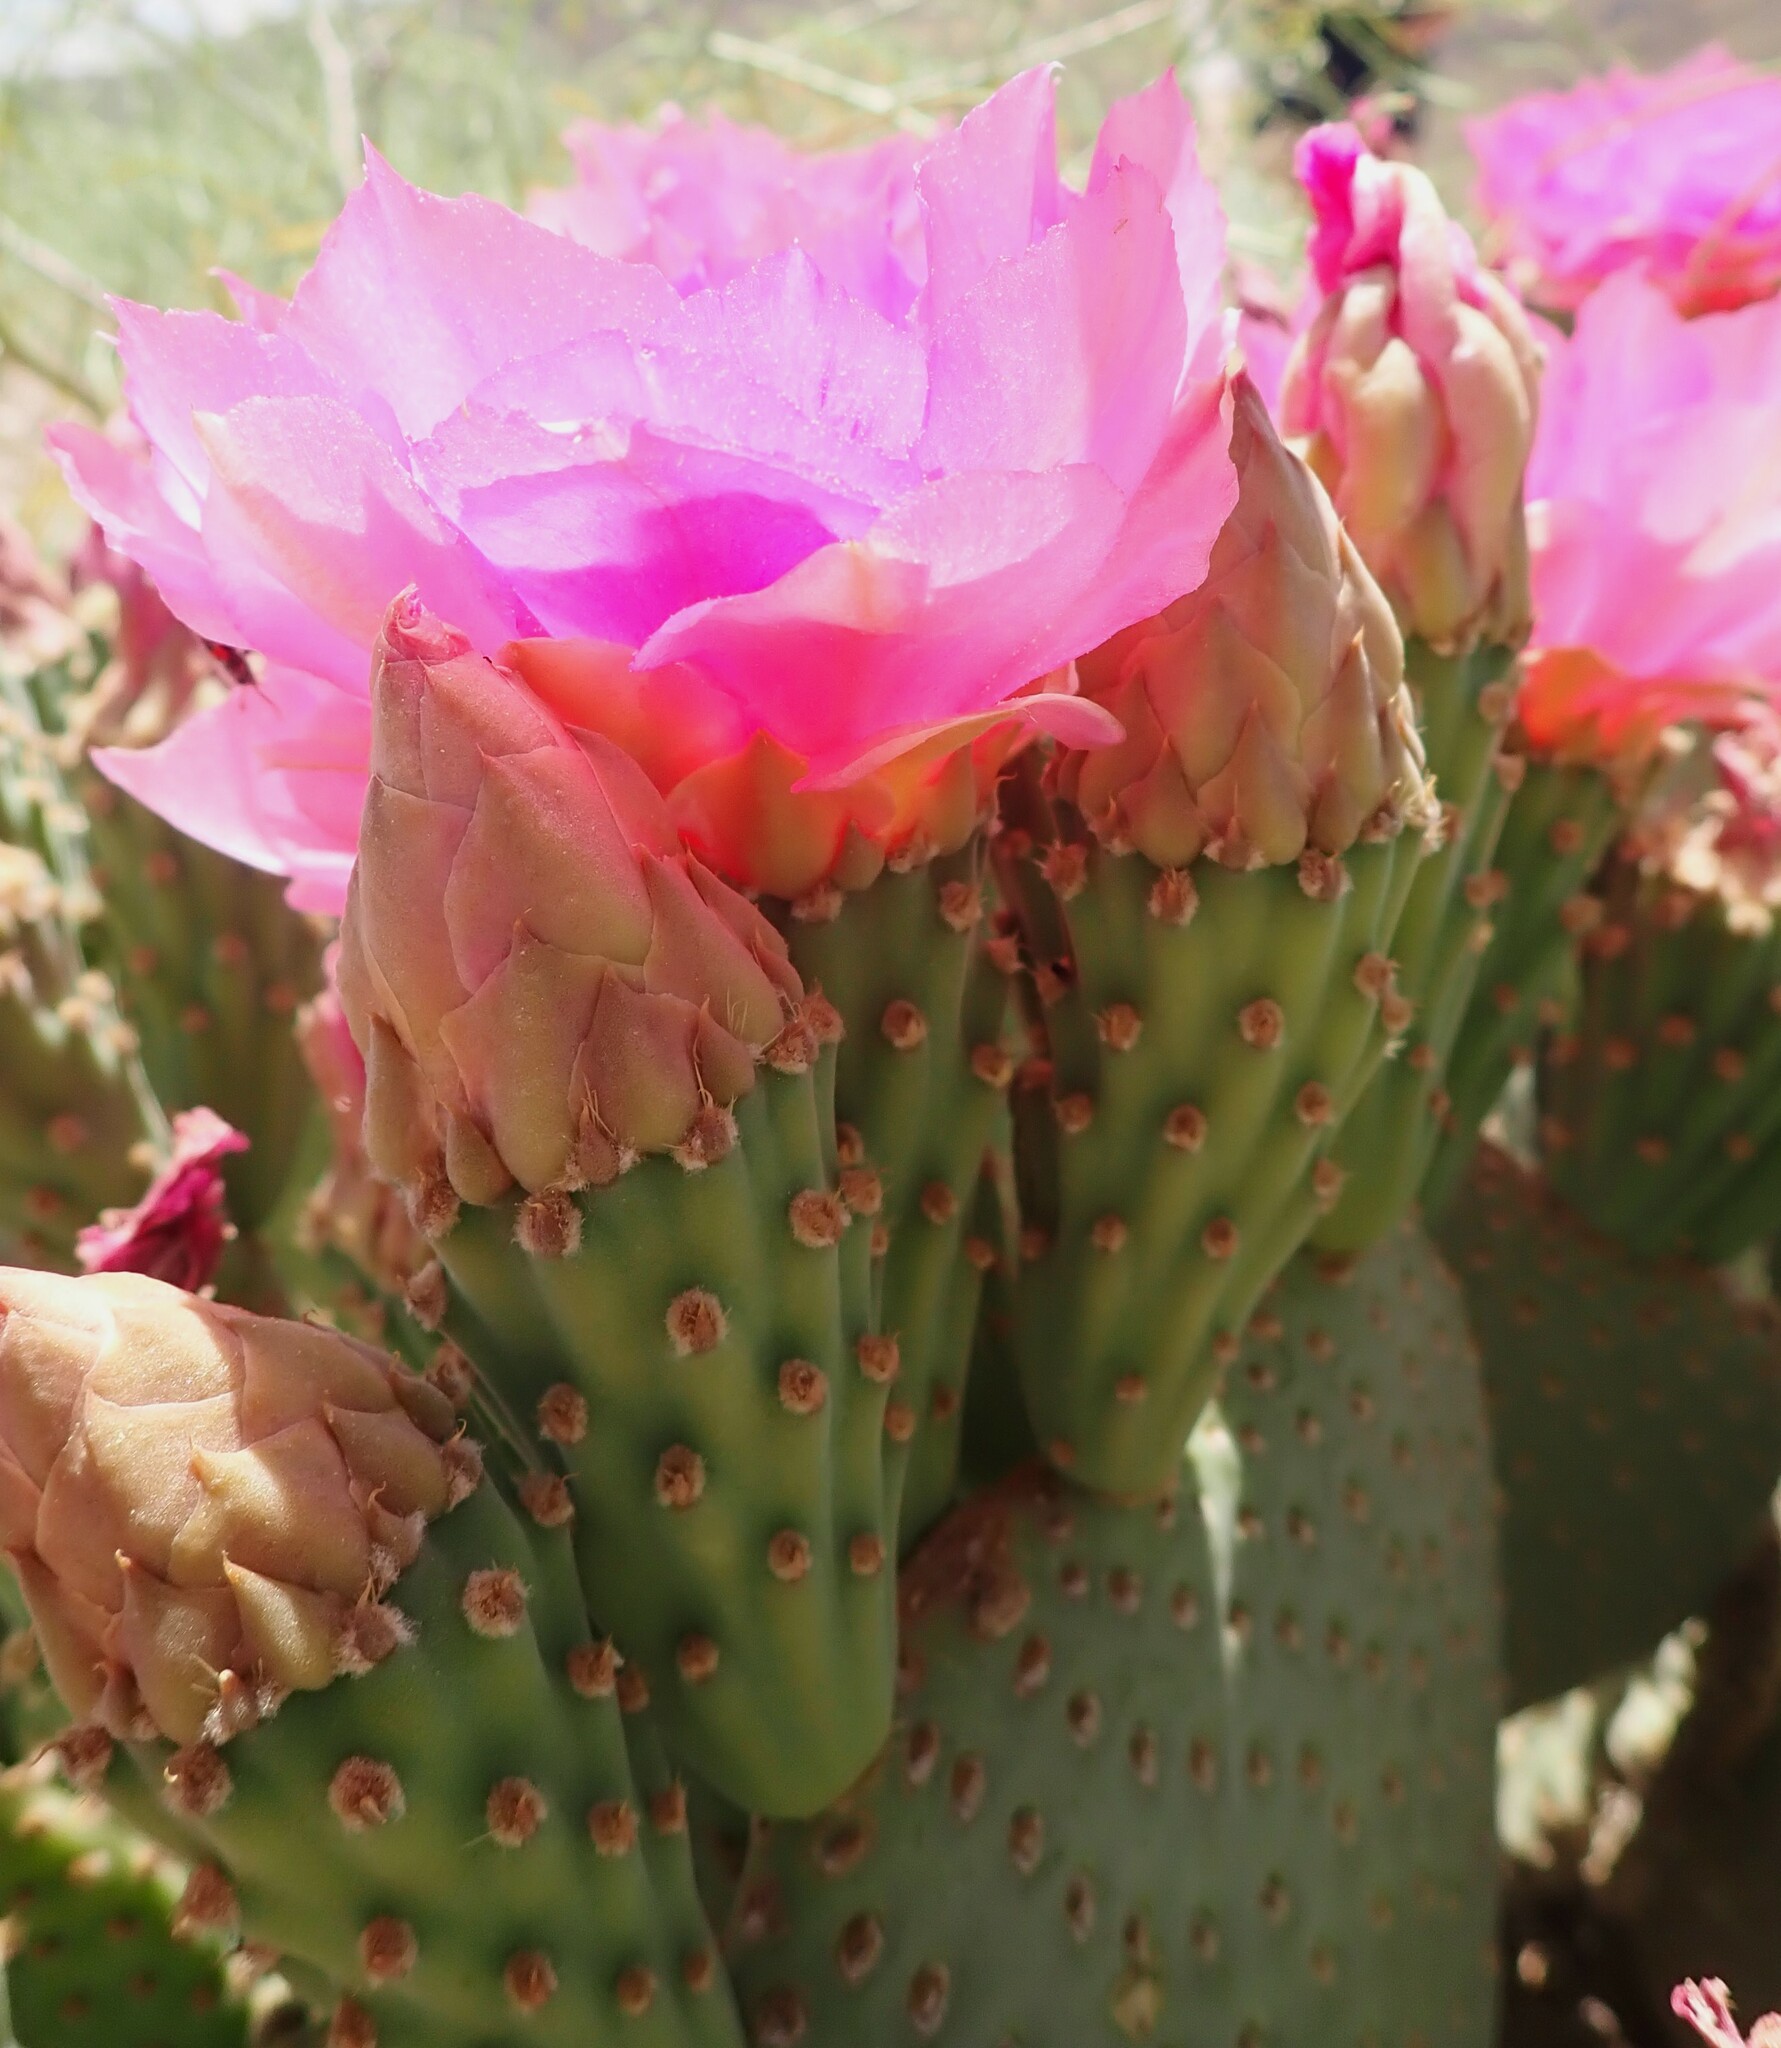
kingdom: Plantae
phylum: Tracheophyta
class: Magnoliopsida
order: Caryophyllales
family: Cactaceae
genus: Opuntia
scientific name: Opuntia basilaris
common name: Beavertail prickly-pear
